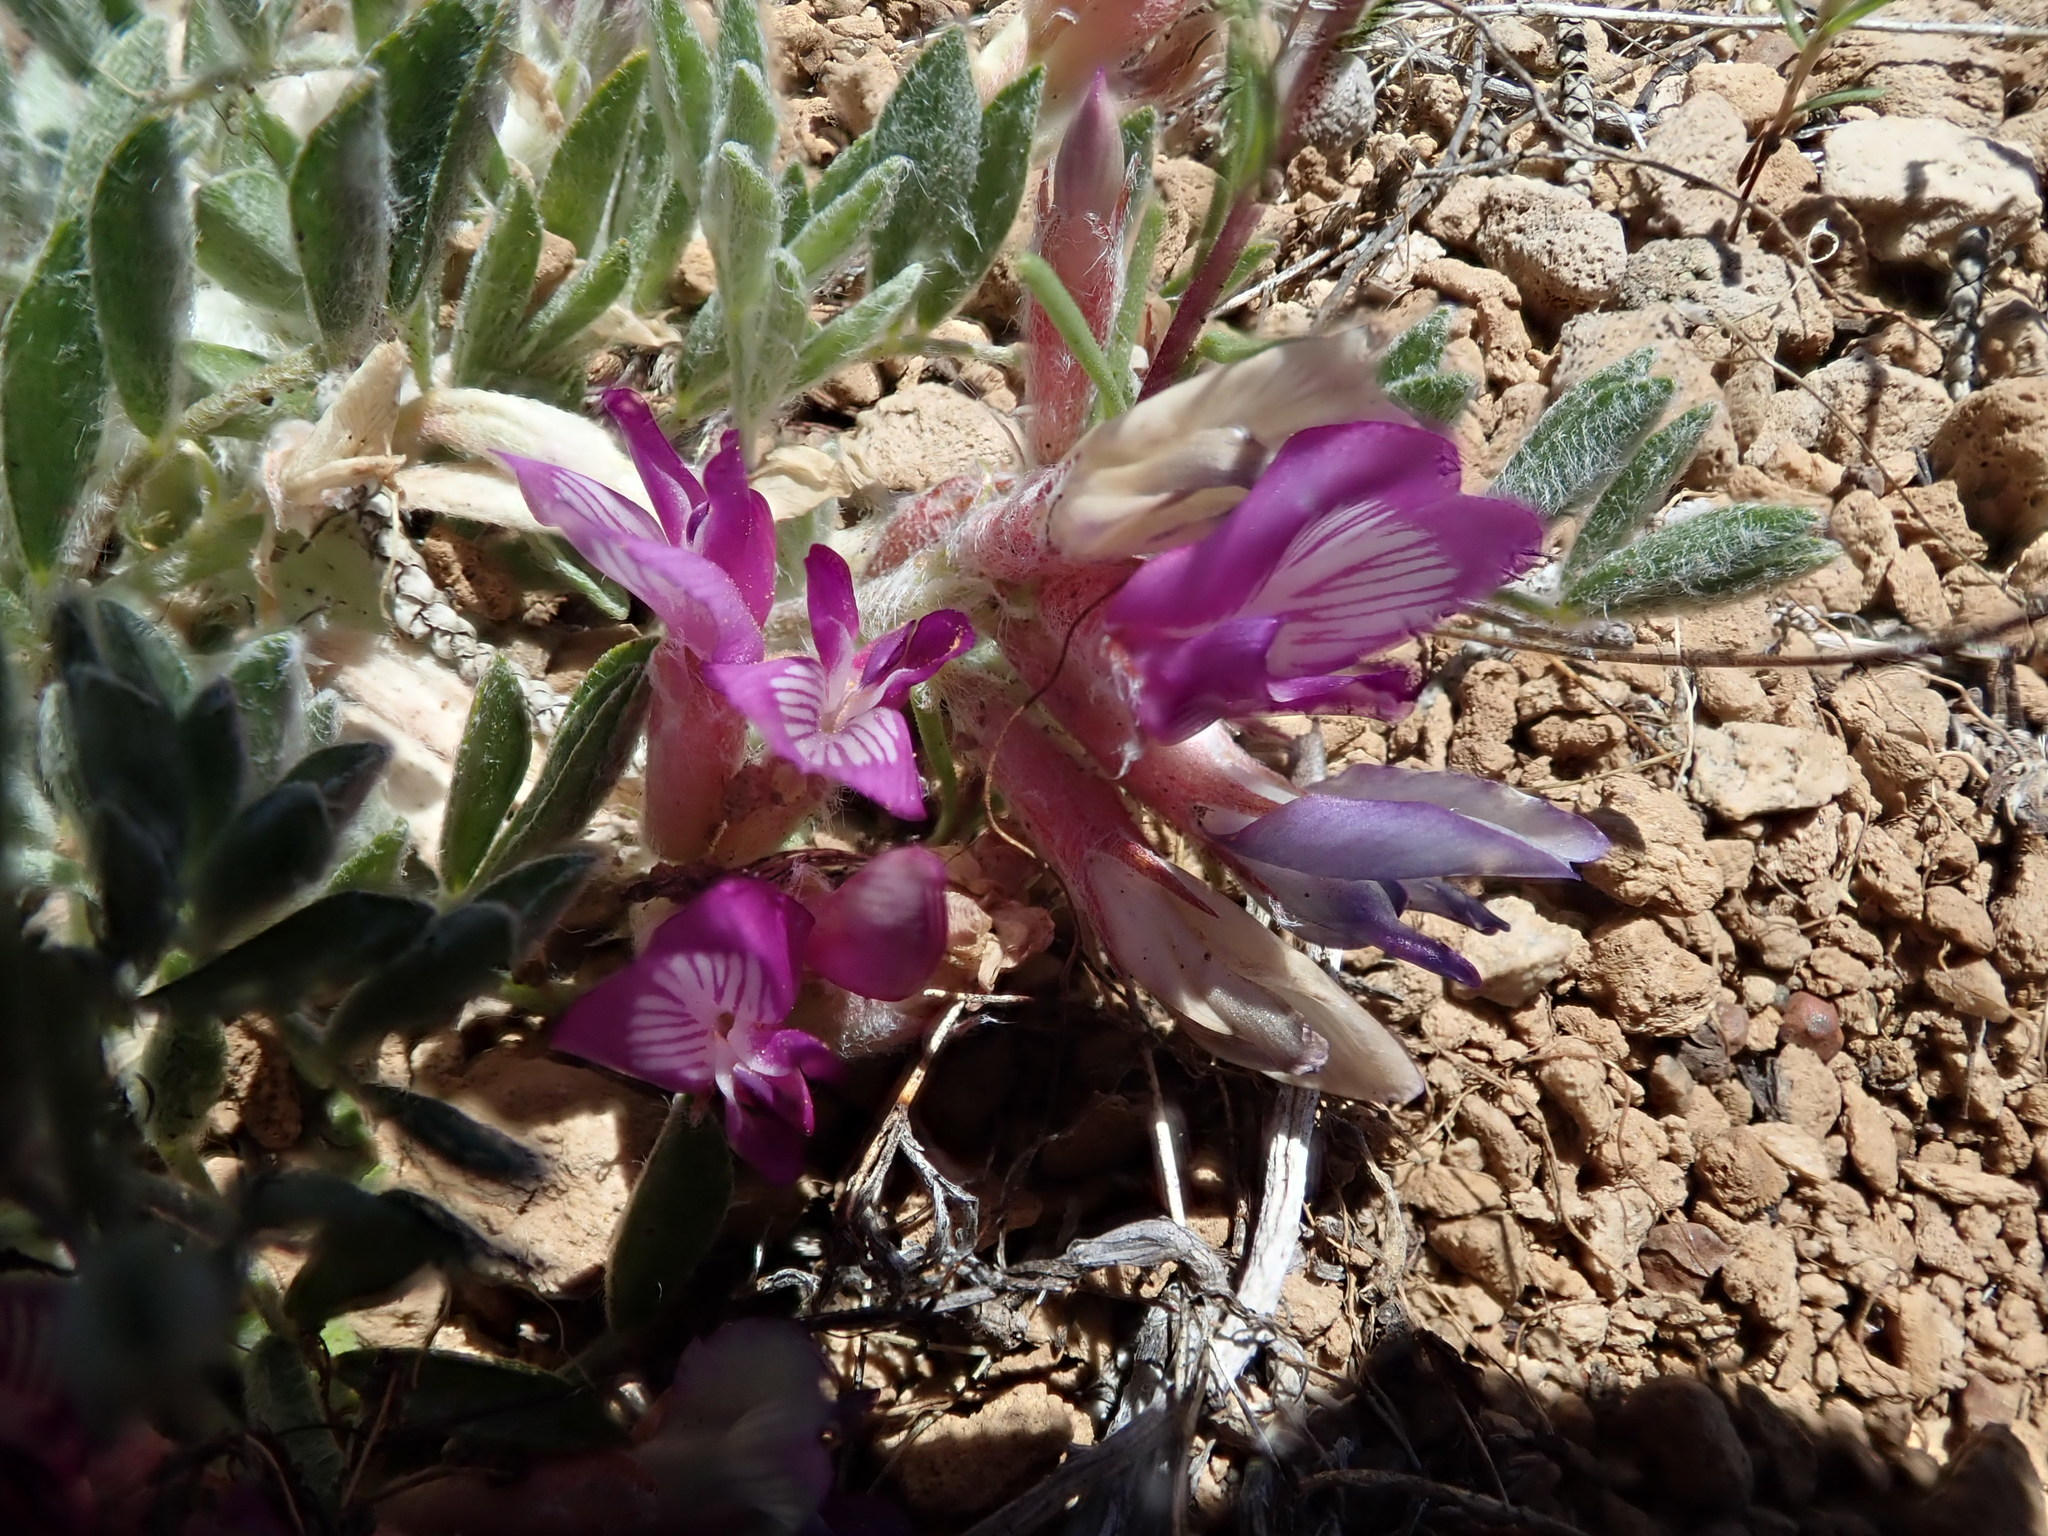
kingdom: Plantae
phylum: Tracheophyta
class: Magnoliopsida
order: Fabales
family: Fabaceae
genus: Astragalus
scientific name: Astragalus purshii
